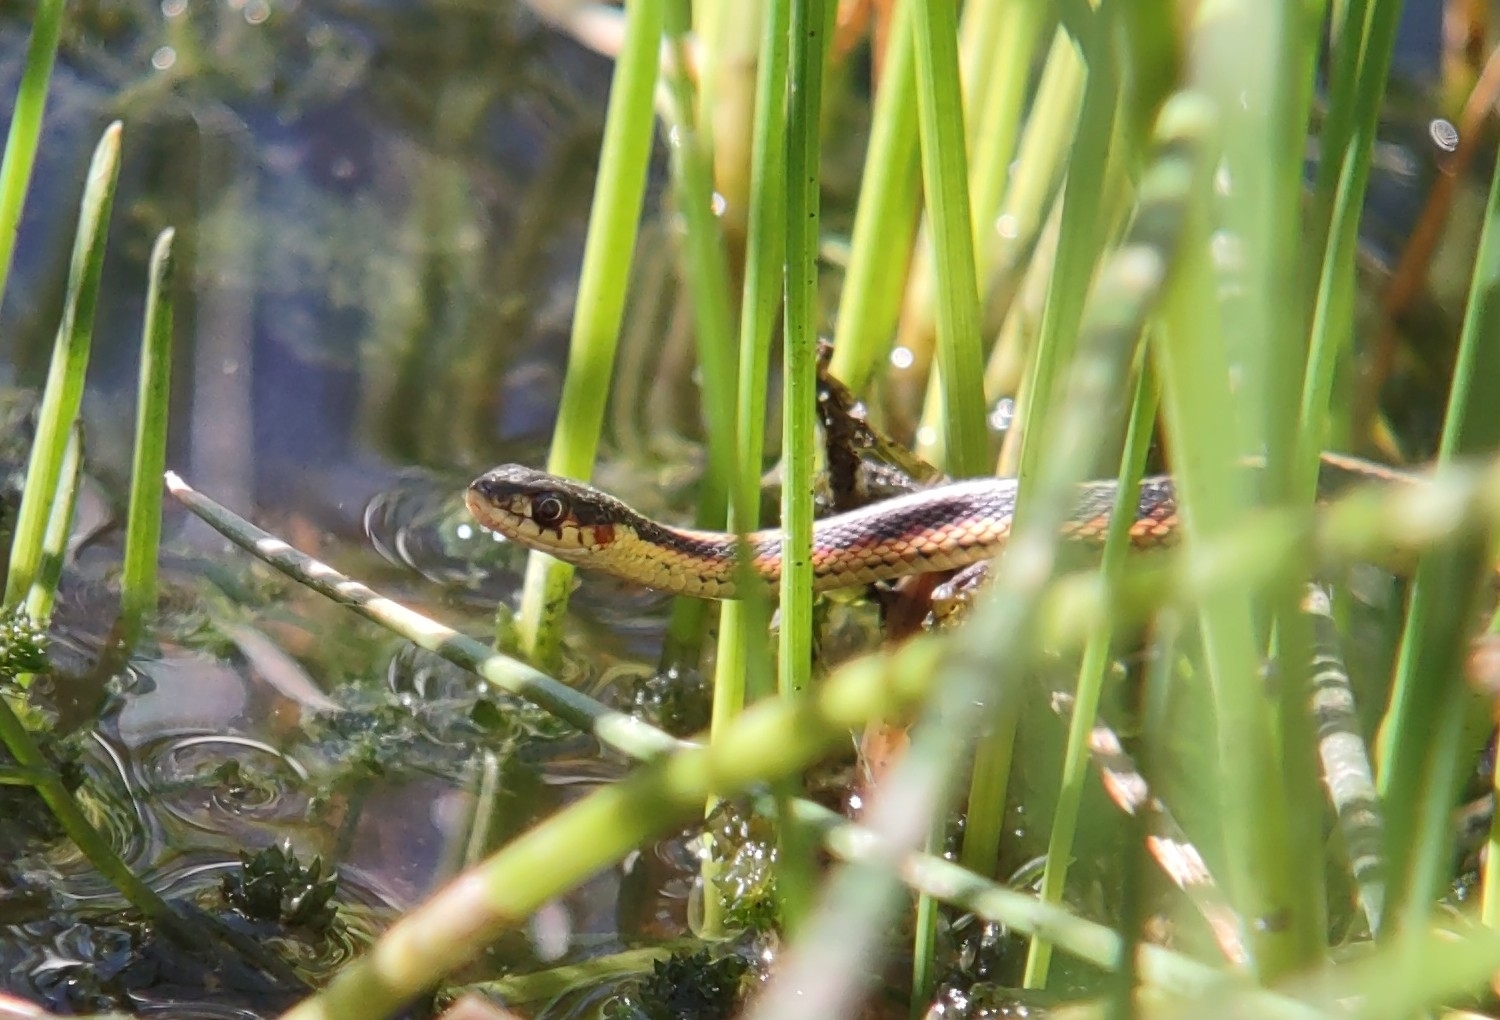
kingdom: Animalia
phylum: Chordata
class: Squamata
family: Colubridae
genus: Thamnophis
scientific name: Thamnophis sirtalis
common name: Common garter snake
